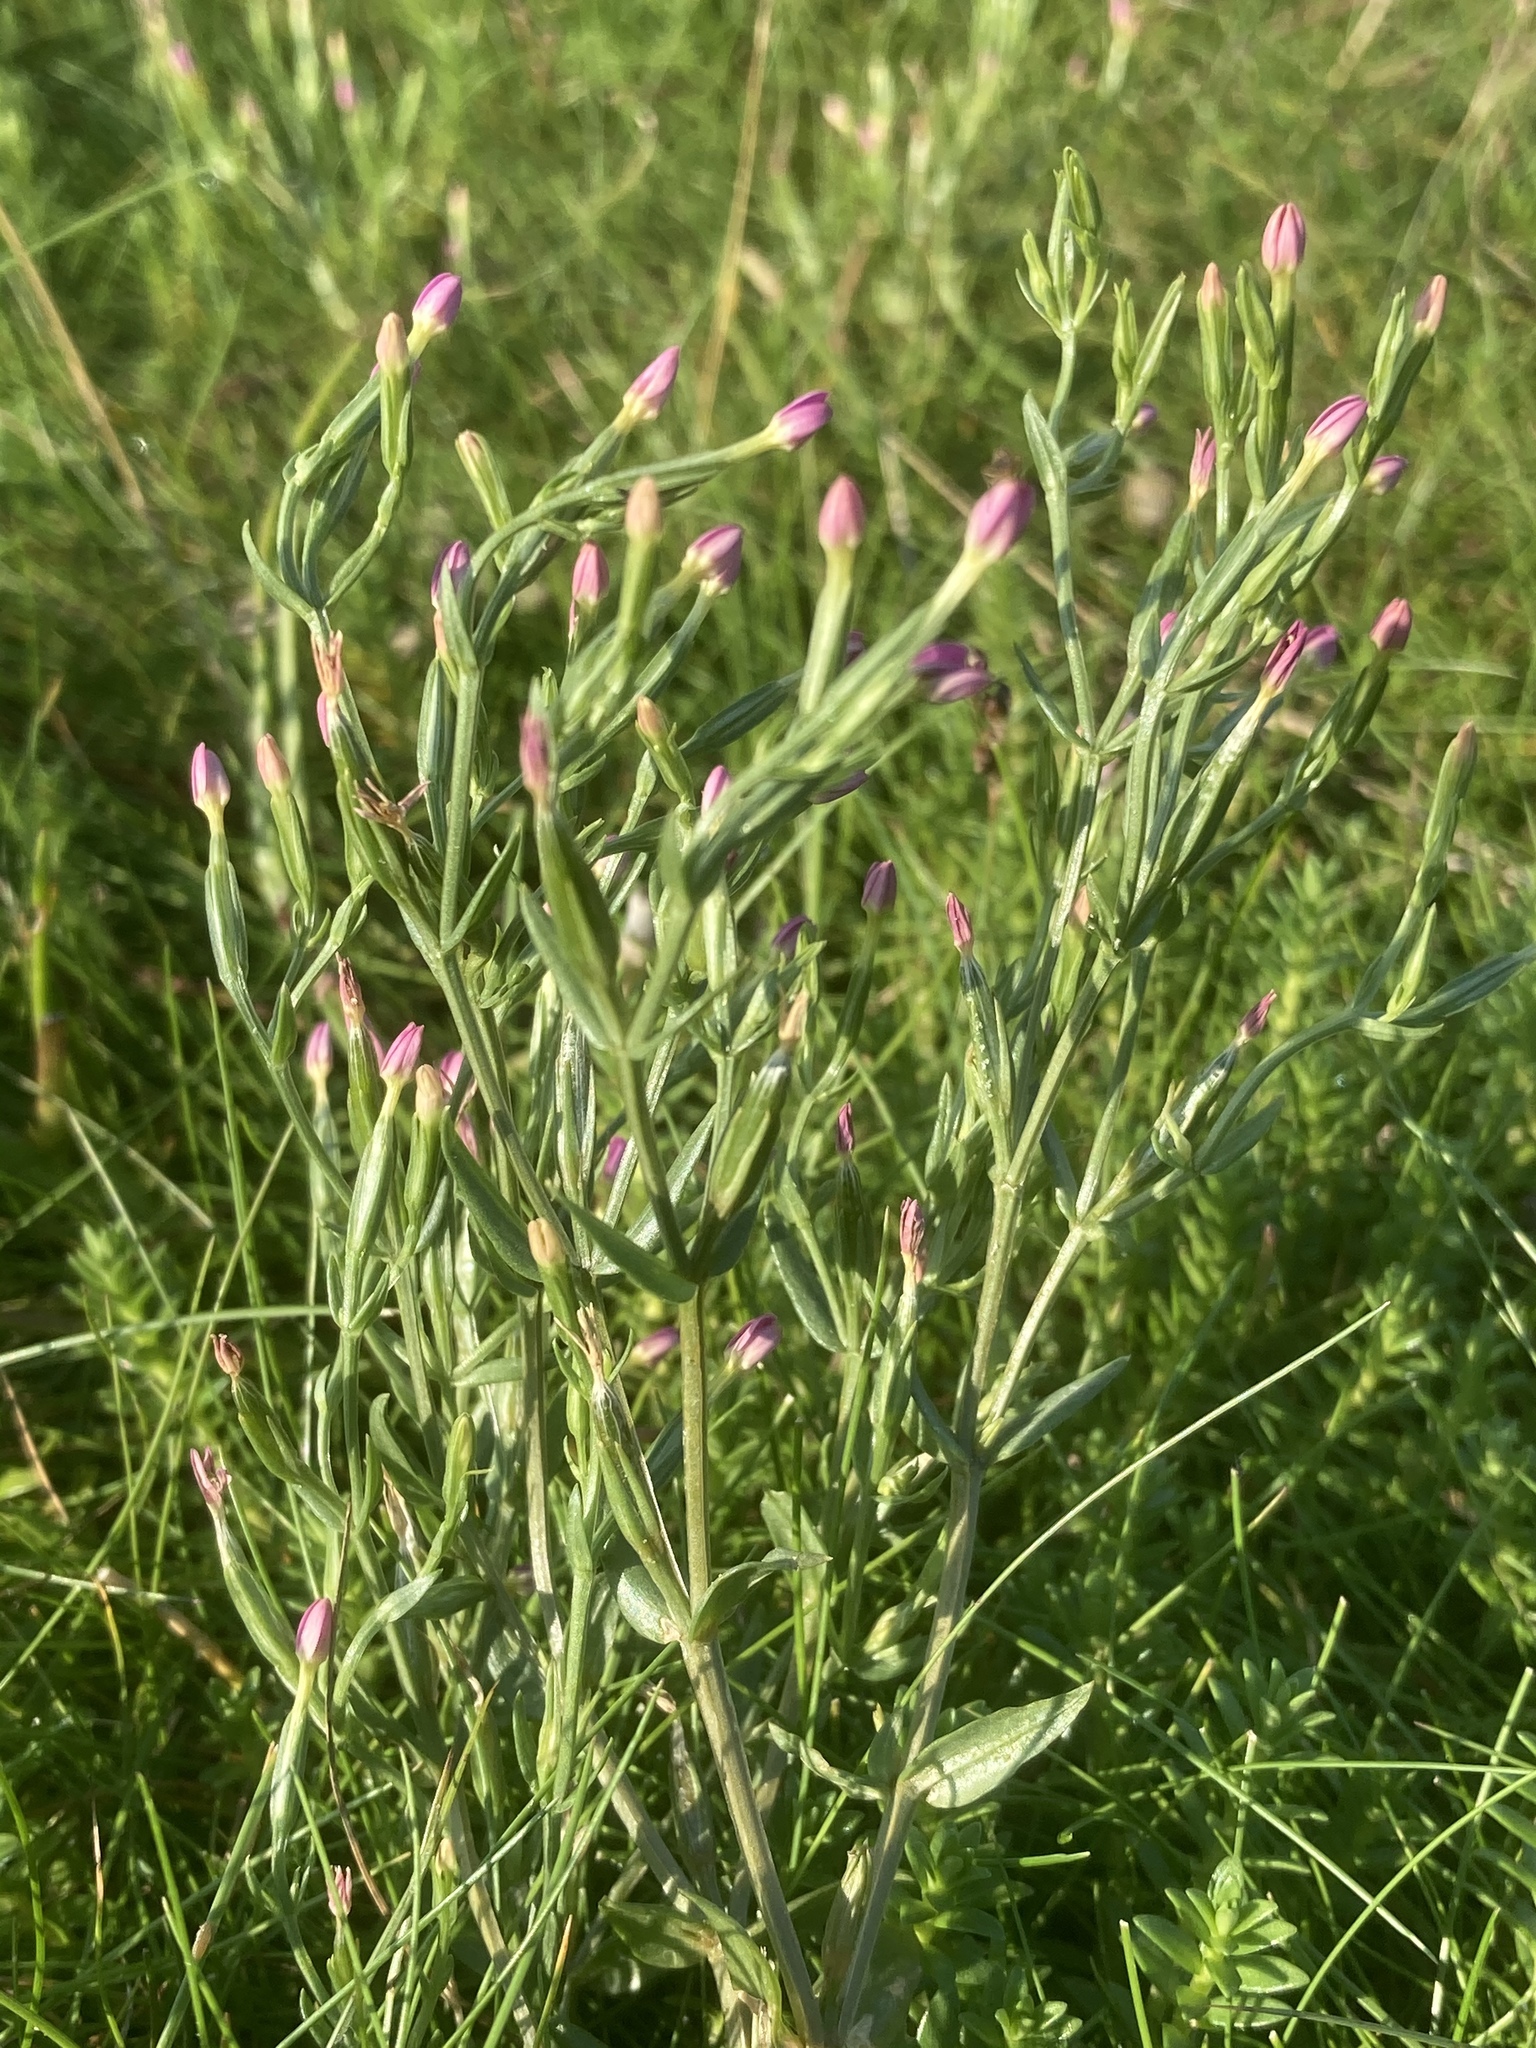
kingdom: Plantae
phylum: Tracheophyta
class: Magnoliopsida
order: Gentianales
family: Gentianaceae
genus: Centaurium
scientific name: Centaurium pulchellum
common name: Lesser centaury
